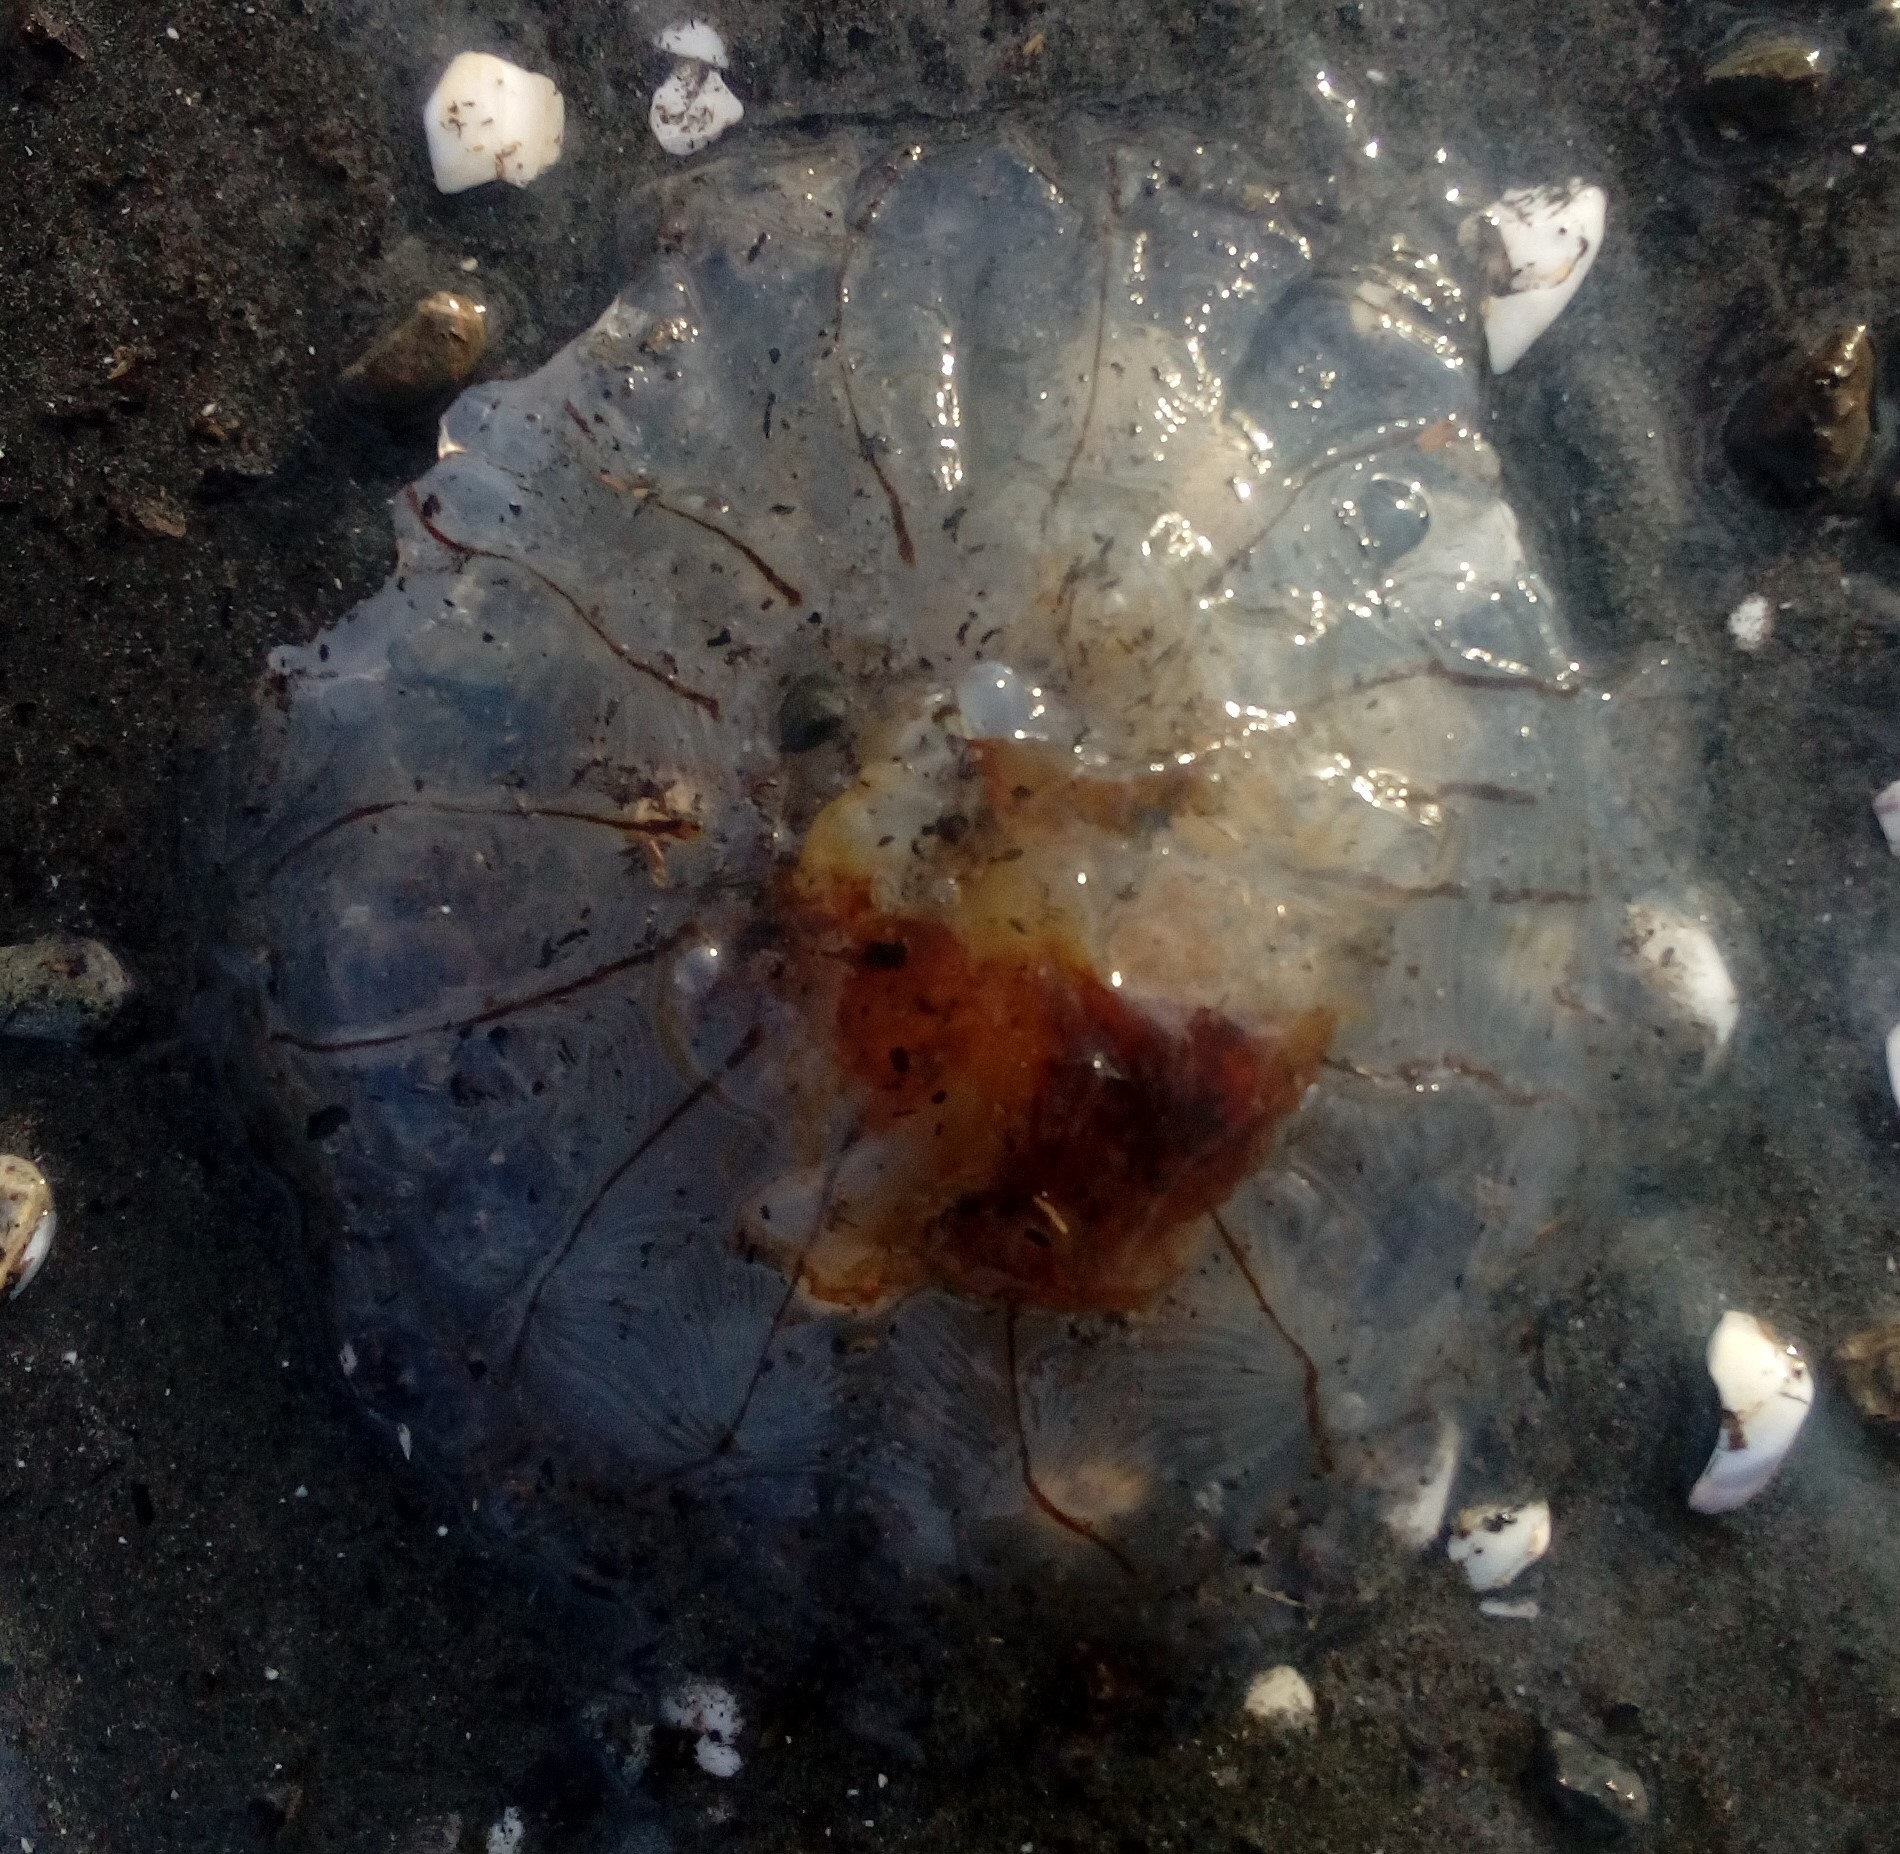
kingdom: Animalia
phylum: Cnidaria
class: Scyphozoa
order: Semaeostomeae
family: Cyaneidae
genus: Desmonema
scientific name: Desmonema gaudichaudi
